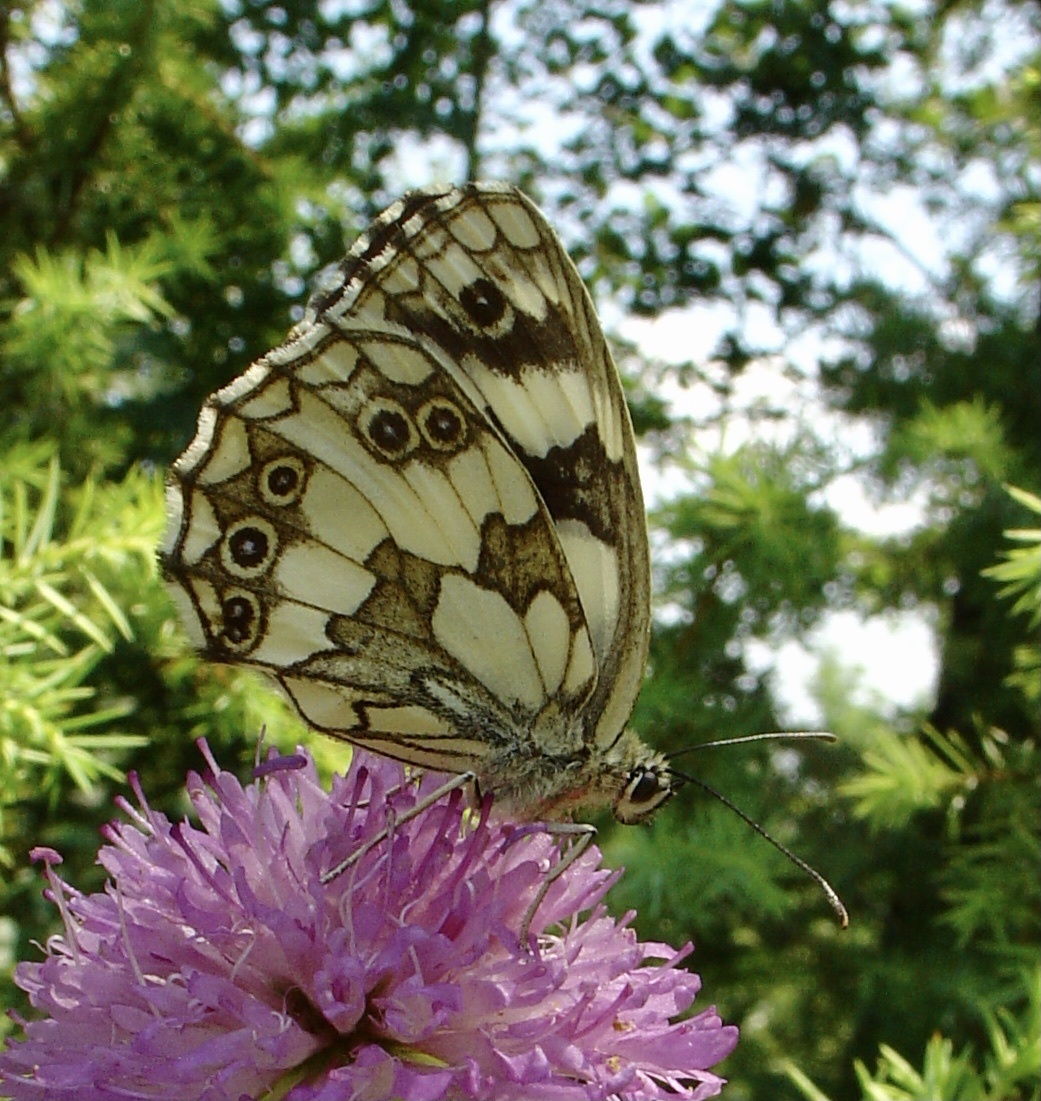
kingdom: Animalia
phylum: Arthropoda
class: Insecta
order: Lepidoptera
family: Nymphalidae
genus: Melanargia
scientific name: Melanargia galathea
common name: Marbled white
